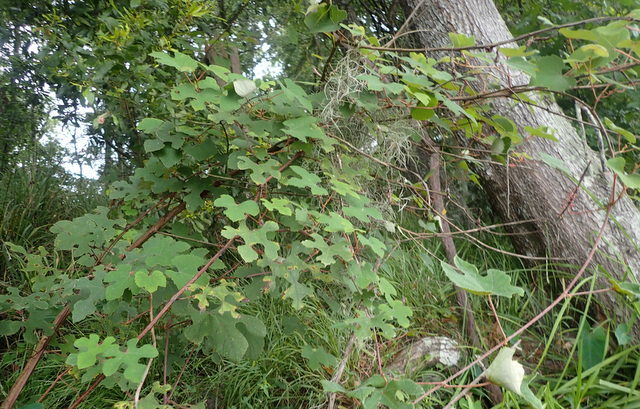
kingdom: Plantae
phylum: Tracheophyta
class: Magnoliopsida
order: Vitales
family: Vitaceae
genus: Vitis
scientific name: Vitis aestivalis
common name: Pigeon grape
